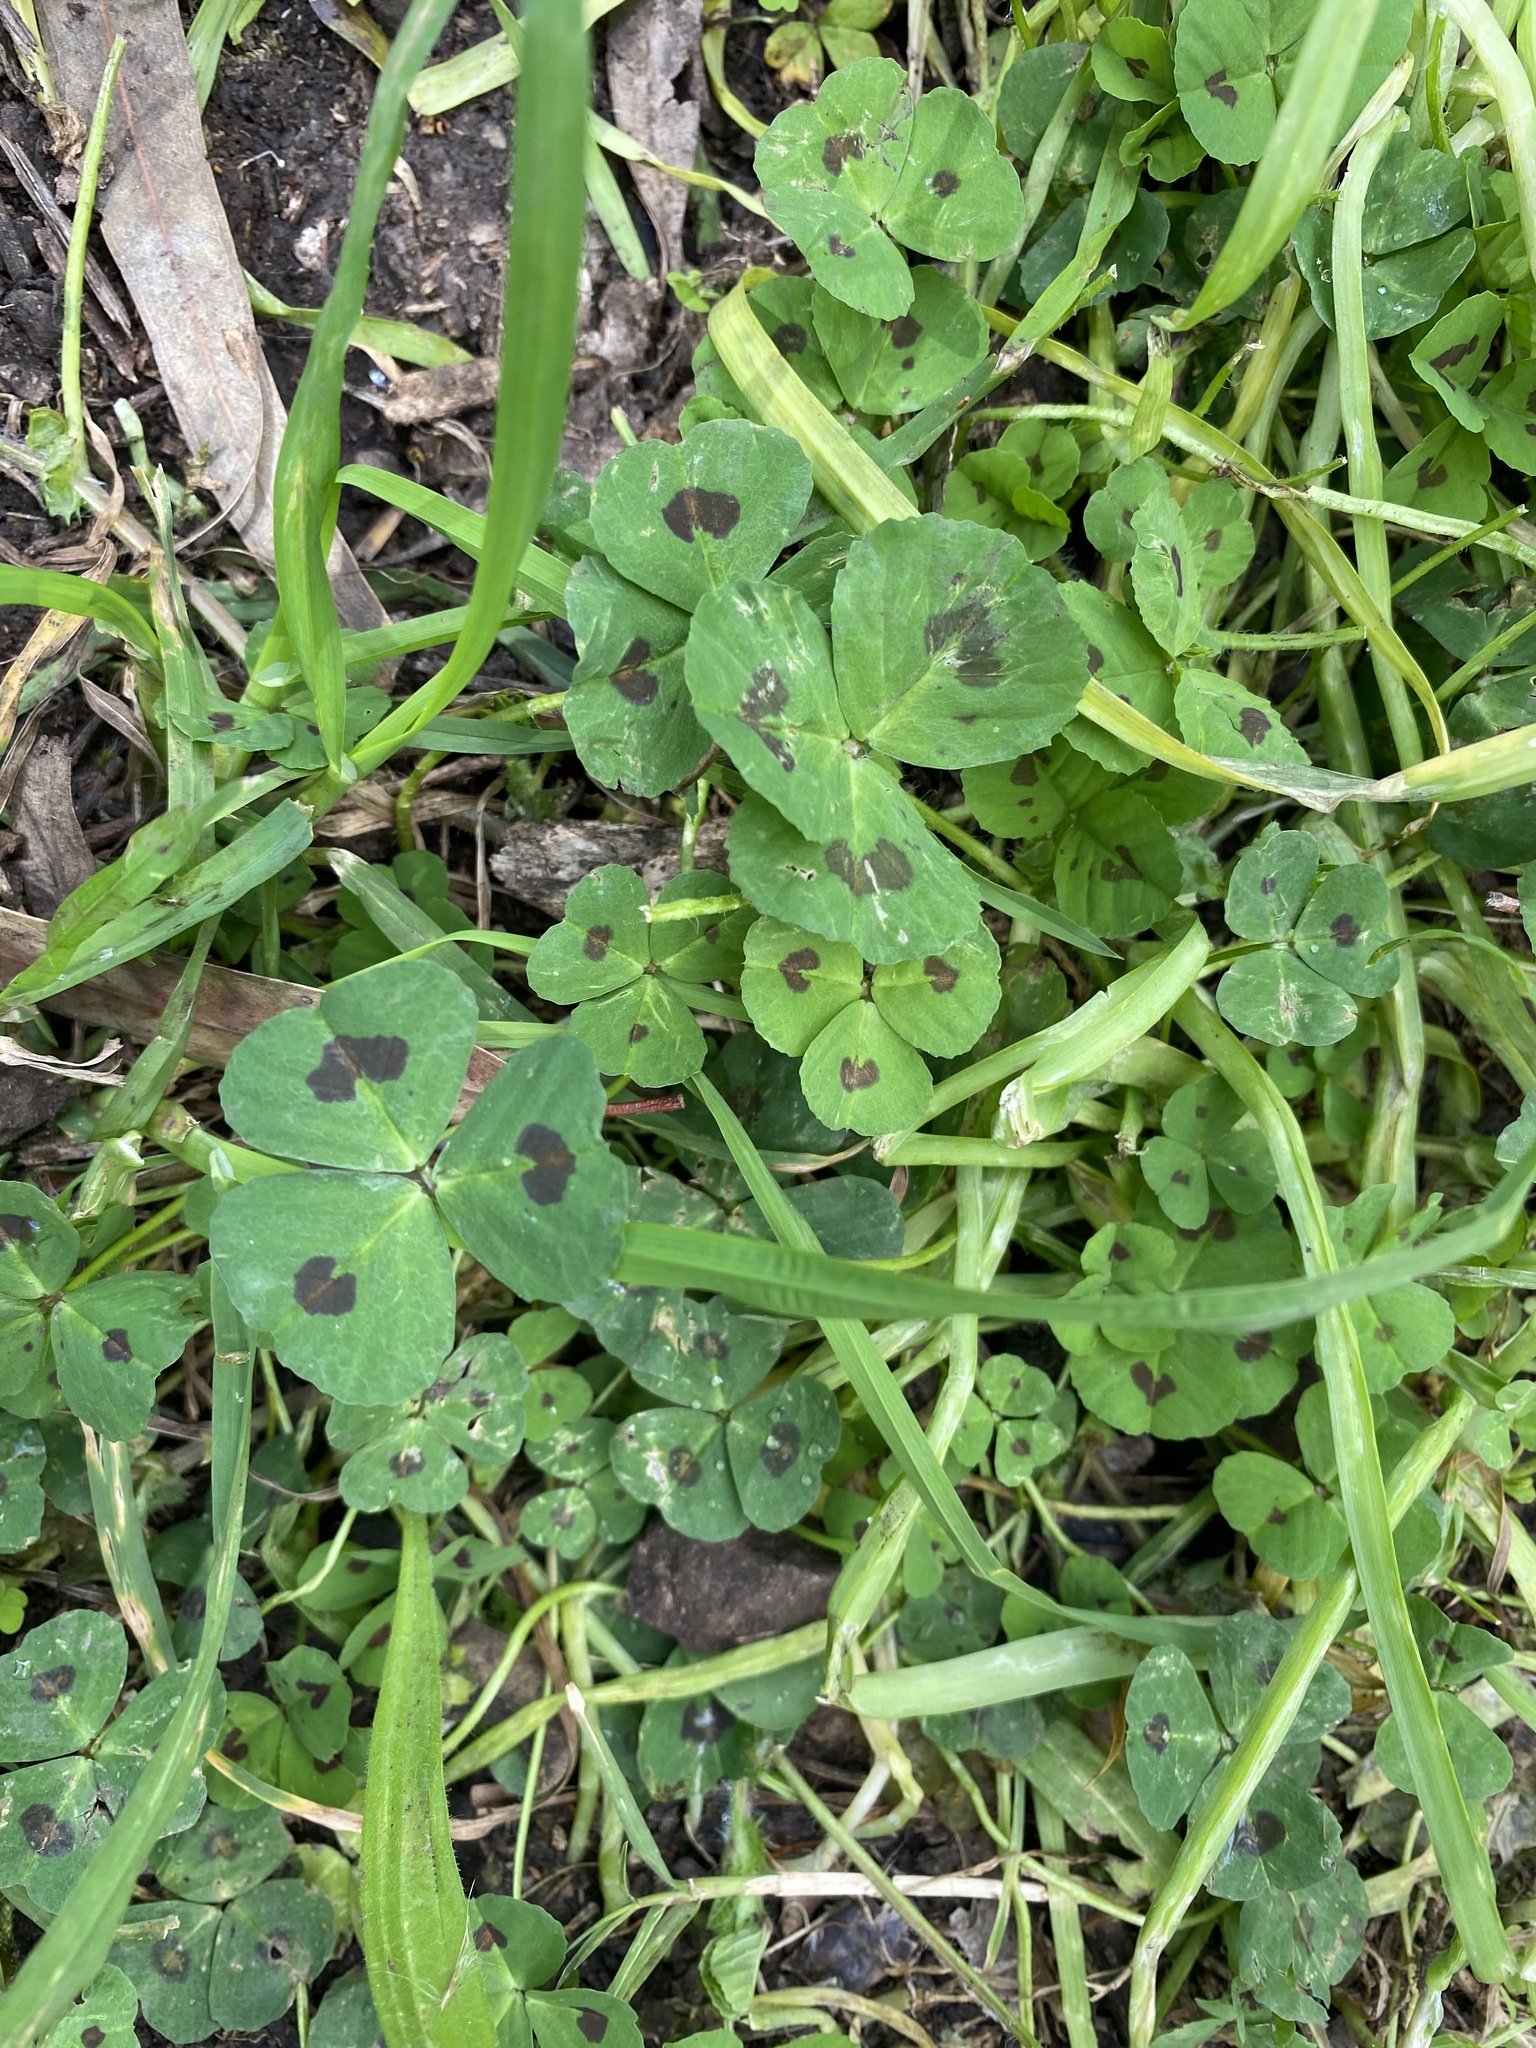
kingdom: Plantae
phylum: Tracheophyta
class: Magnoliopsida
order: Fabales
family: Fabaceae
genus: Medicago
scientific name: Medicago arabica
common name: Spotted medick
